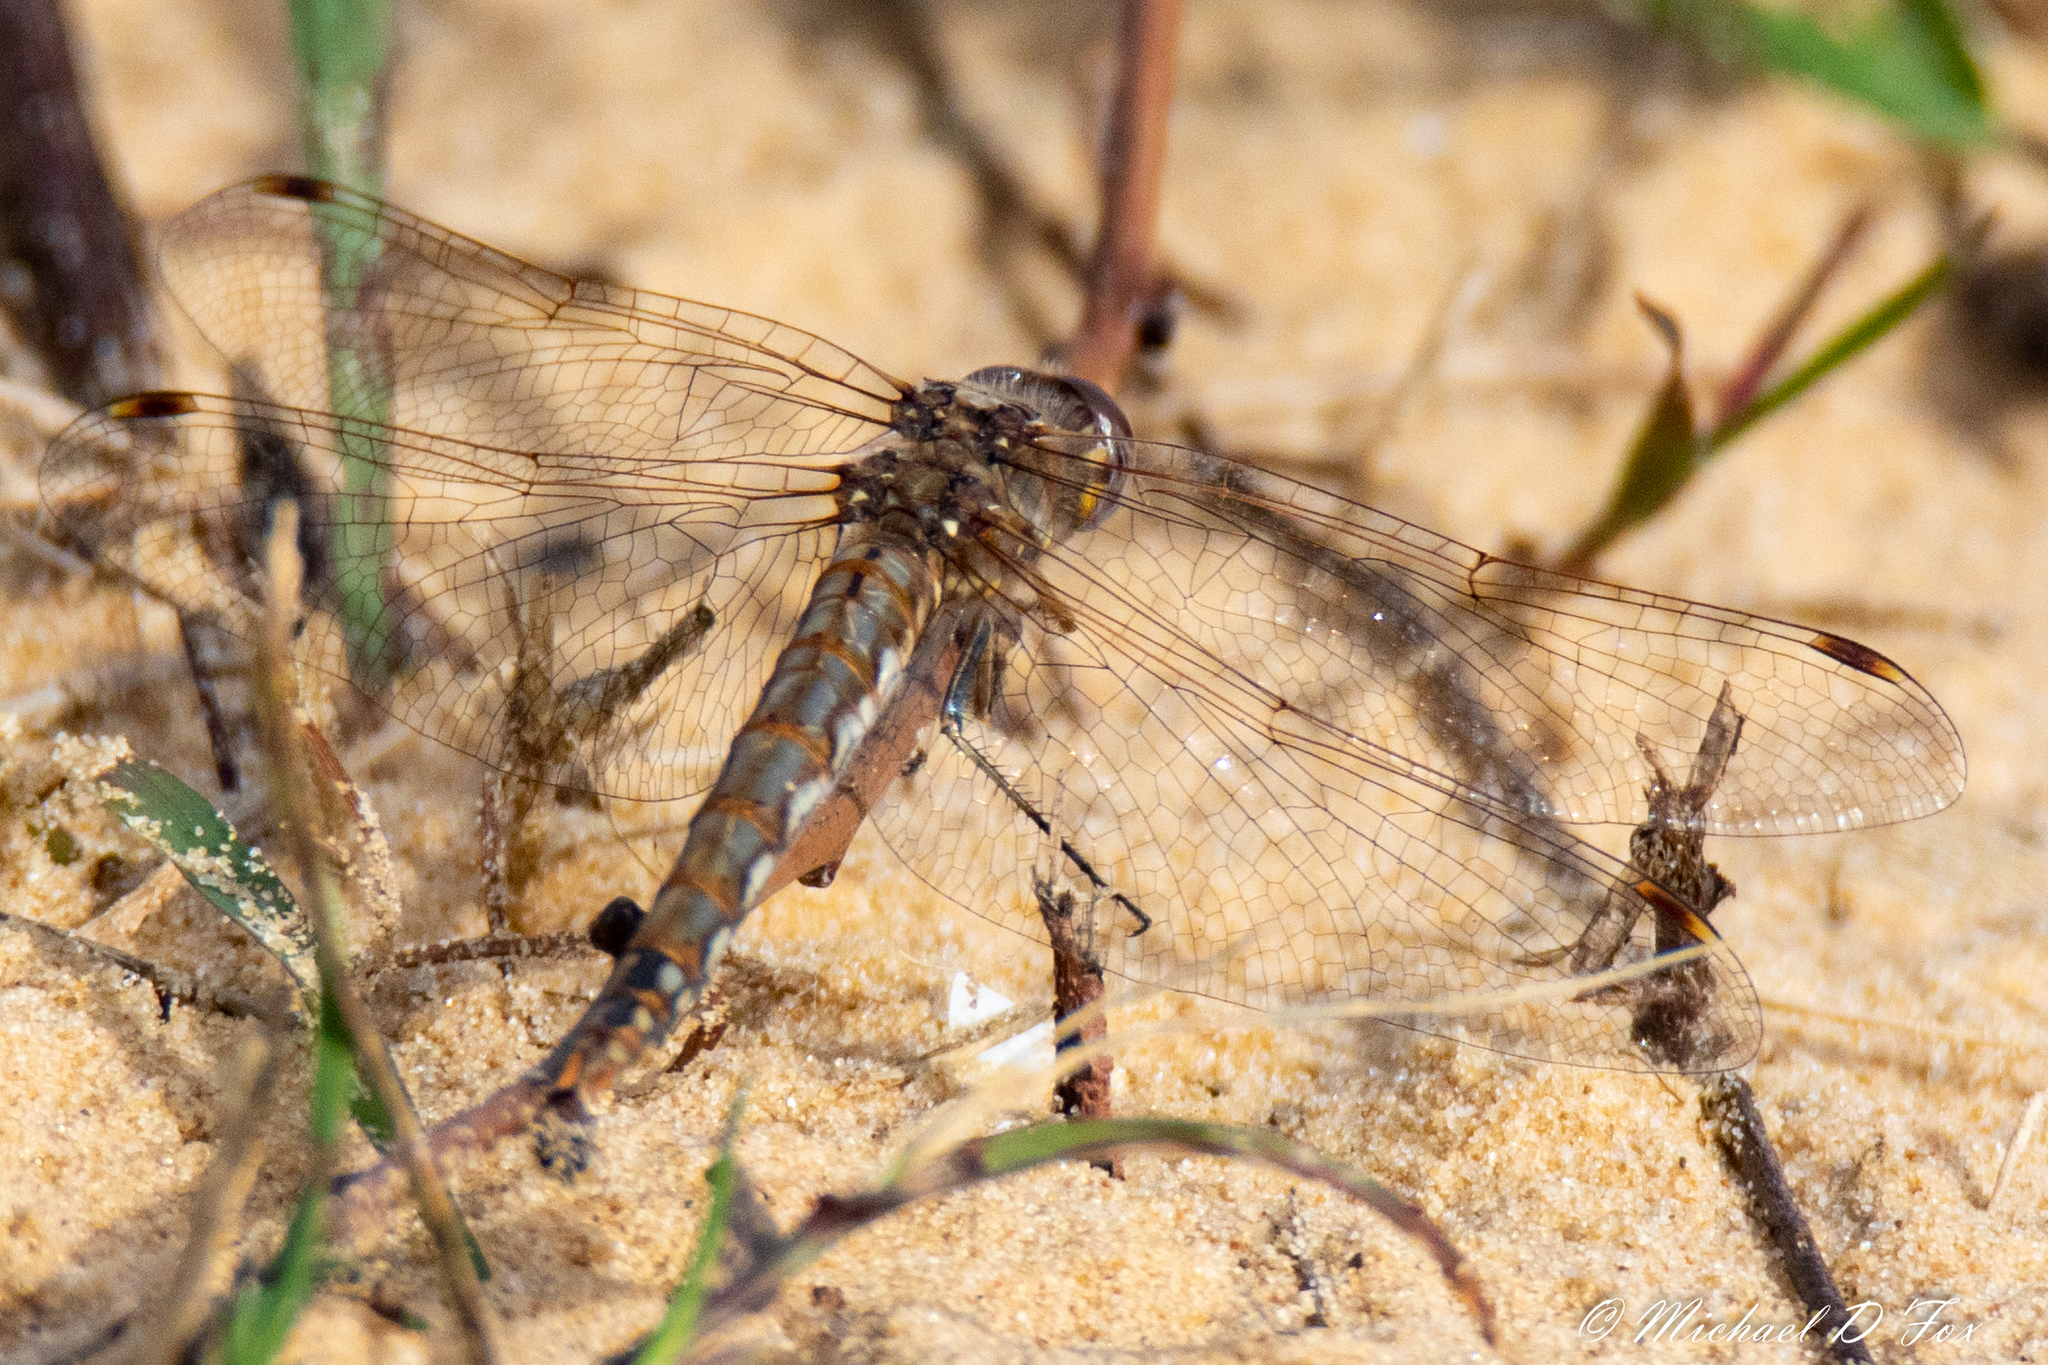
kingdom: Animalia
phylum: Arthropoda
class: Insecta
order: Odonata
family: Libellulidae
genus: Sympetrum
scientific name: Sympetrum corruptum
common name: Variegated meadowhawk
